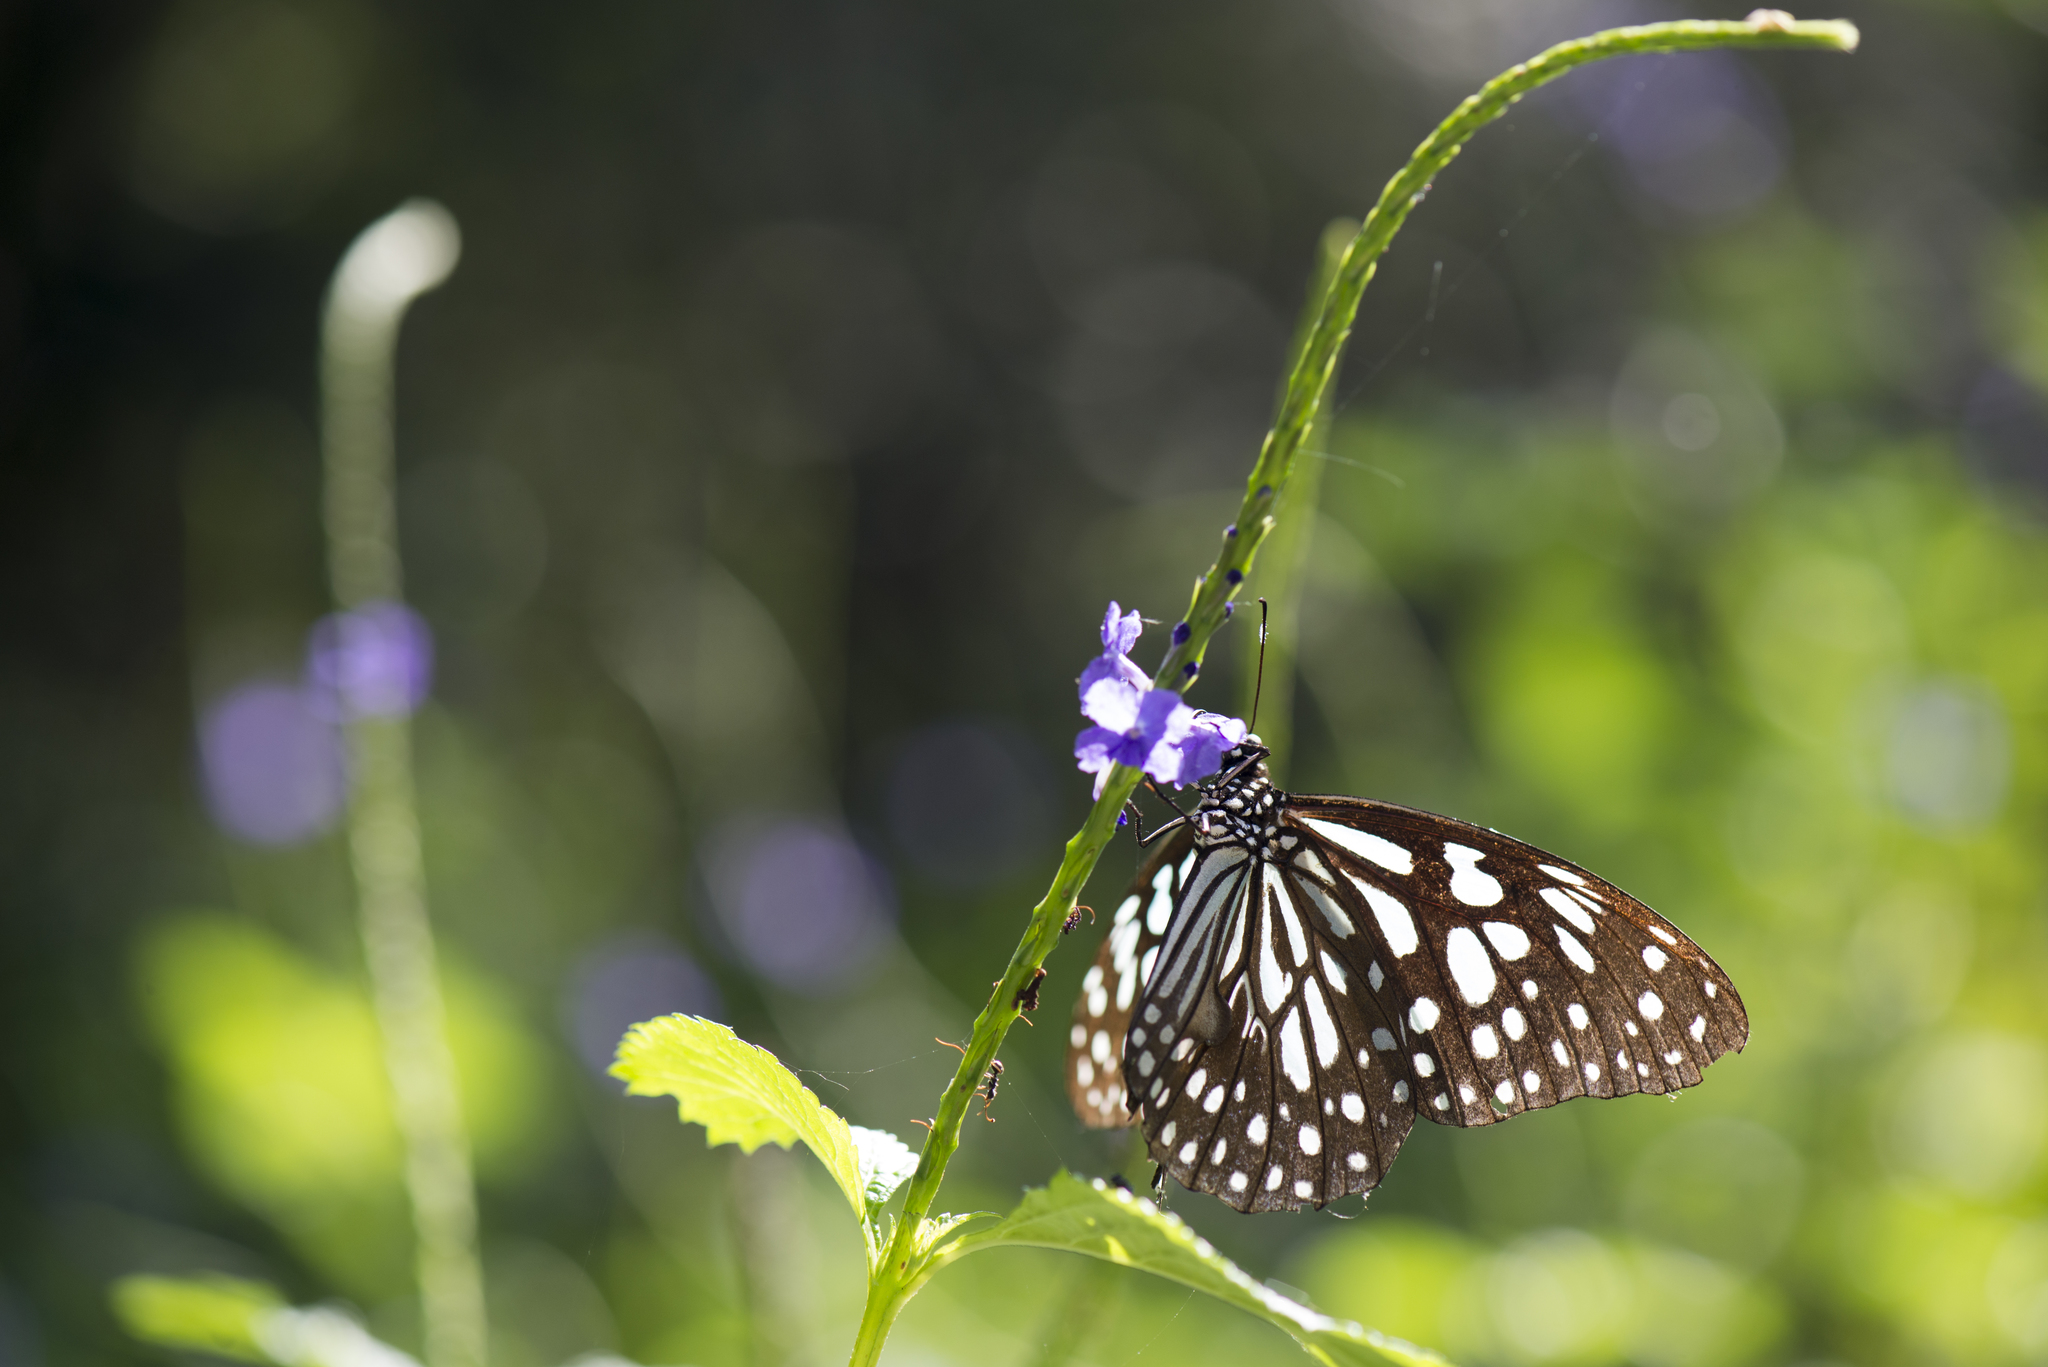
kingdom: Animalia
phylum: Arthropoda
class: Insecta
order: Lepidoptera
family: Nymphalidae
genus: Tirumala
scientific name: Tirumala limniace
